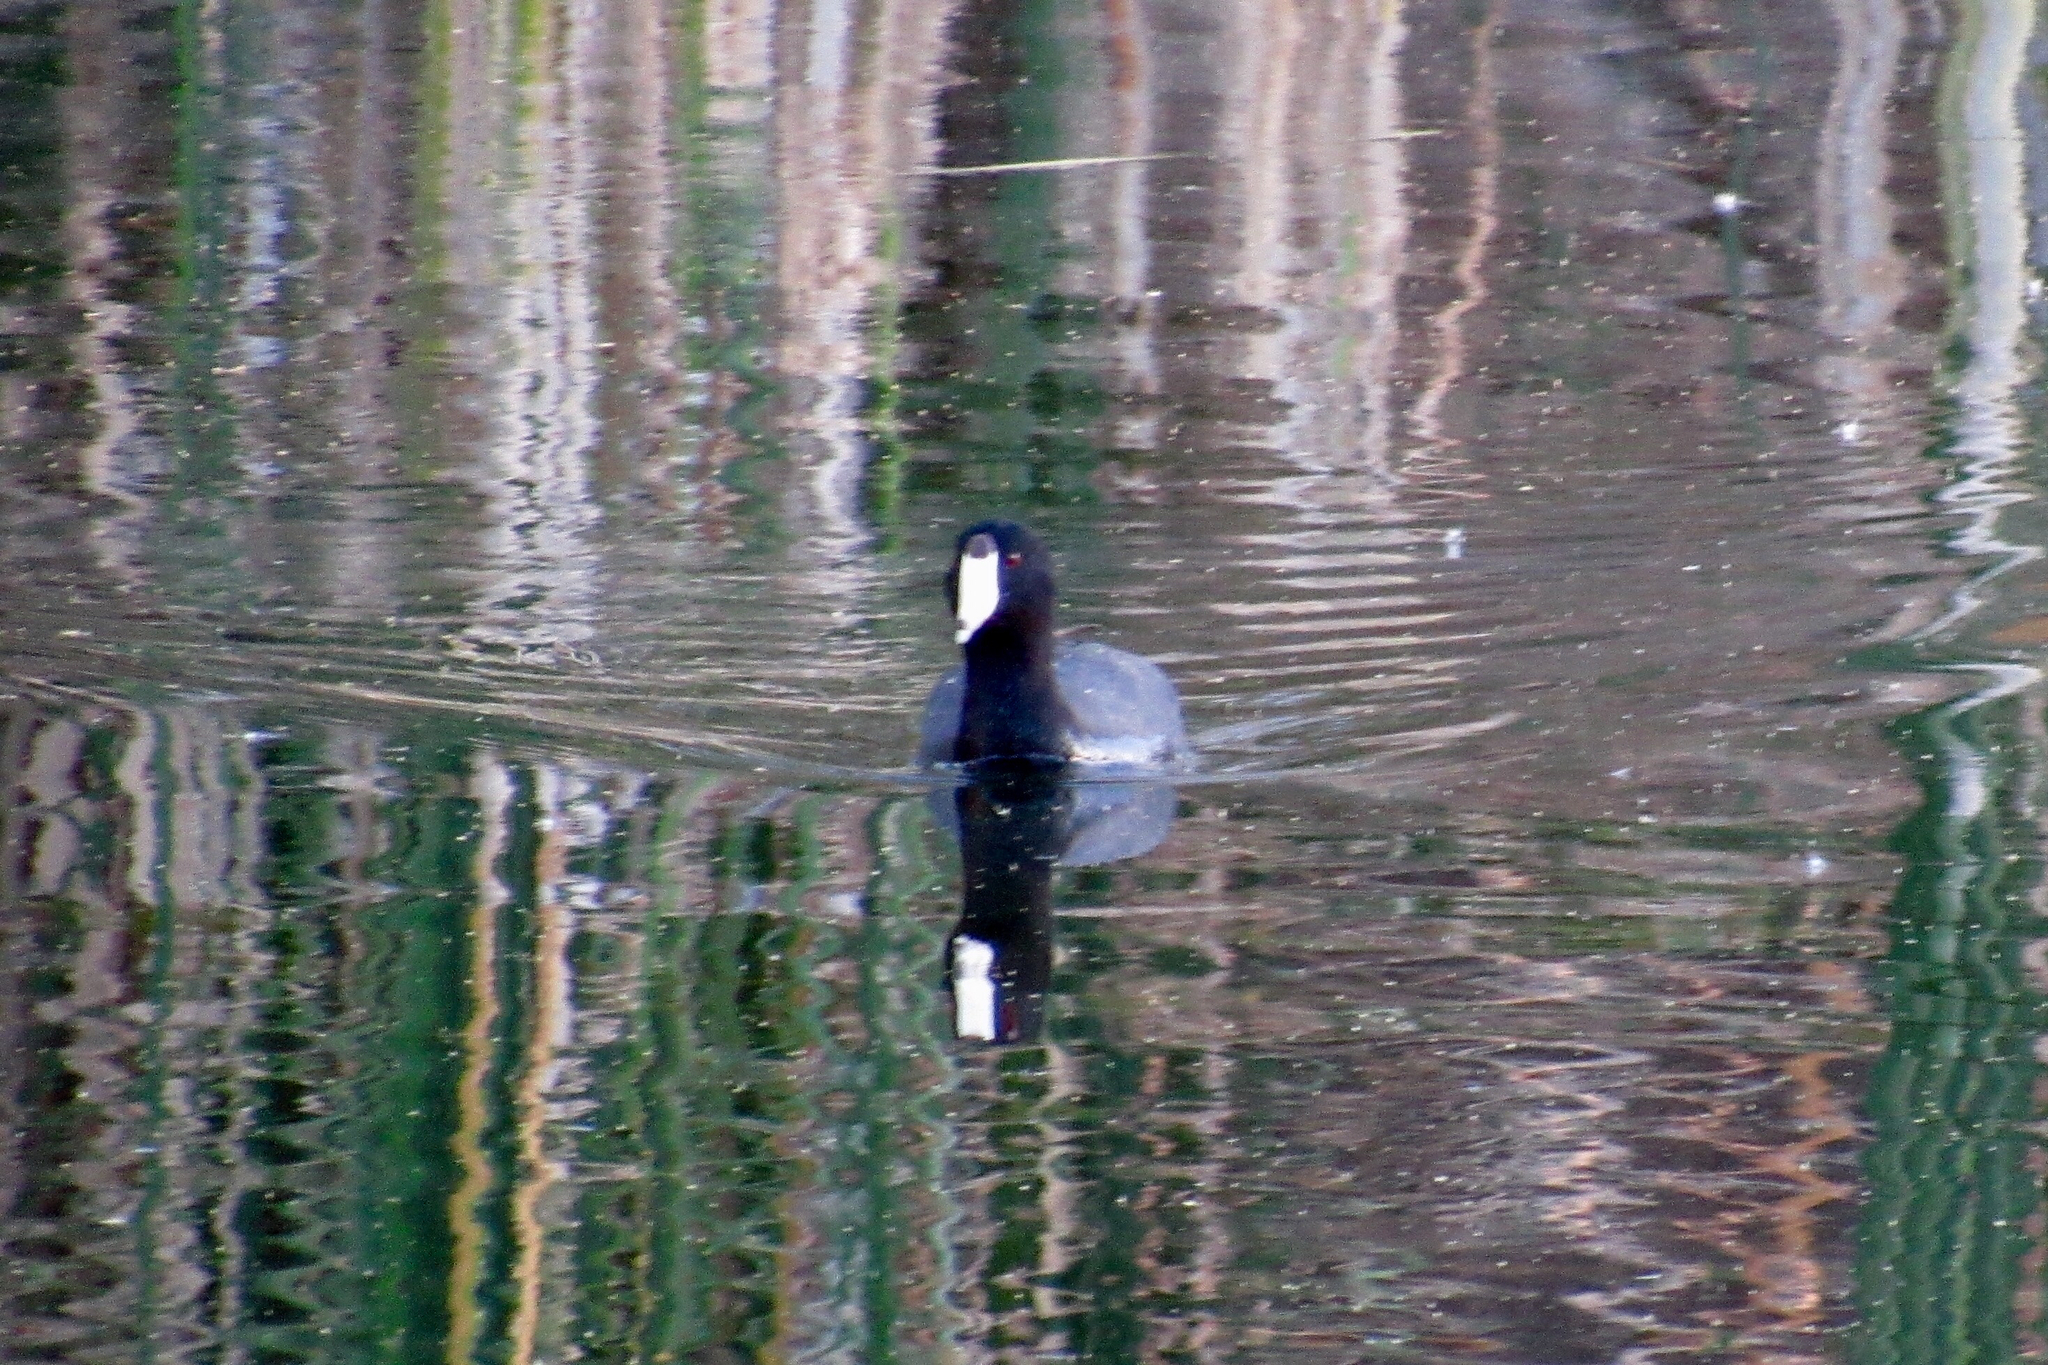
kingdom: Animalia
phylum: Chordata
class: Aves
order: Gruiformes
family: Rallidae
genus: Fulica
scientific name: Fulica americana
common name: American coot
